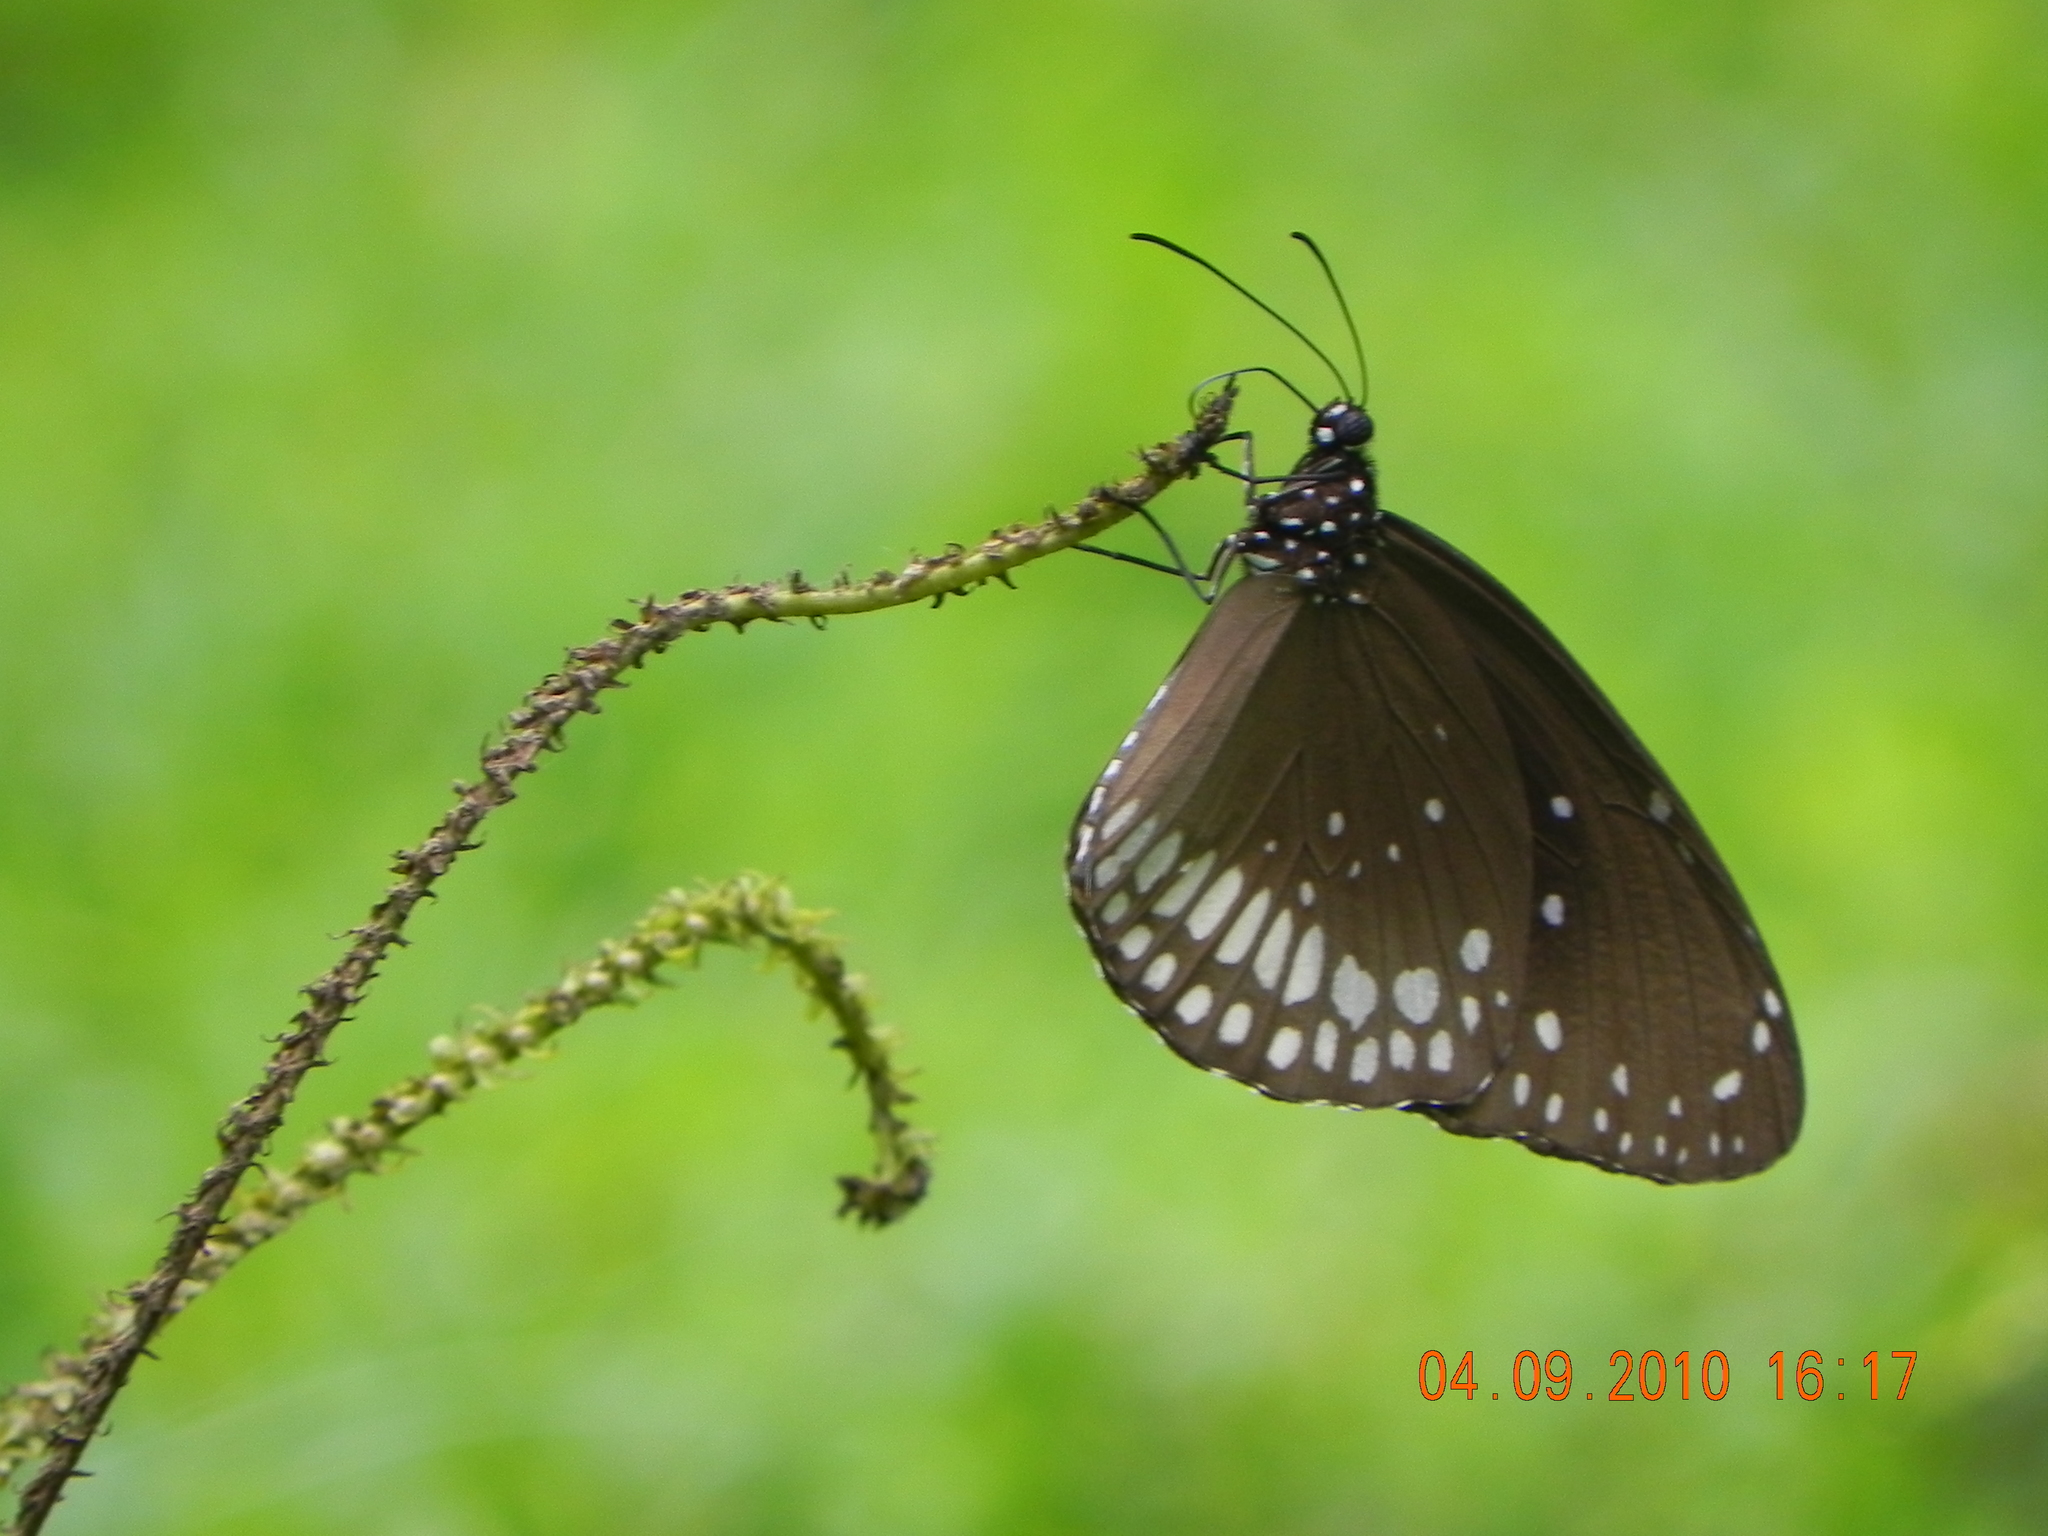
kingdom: Animalia
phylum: Arthropoda
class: Insecta
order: Lepidoptera
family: Nymphalidae
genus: Euploea
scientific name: Euploea core
